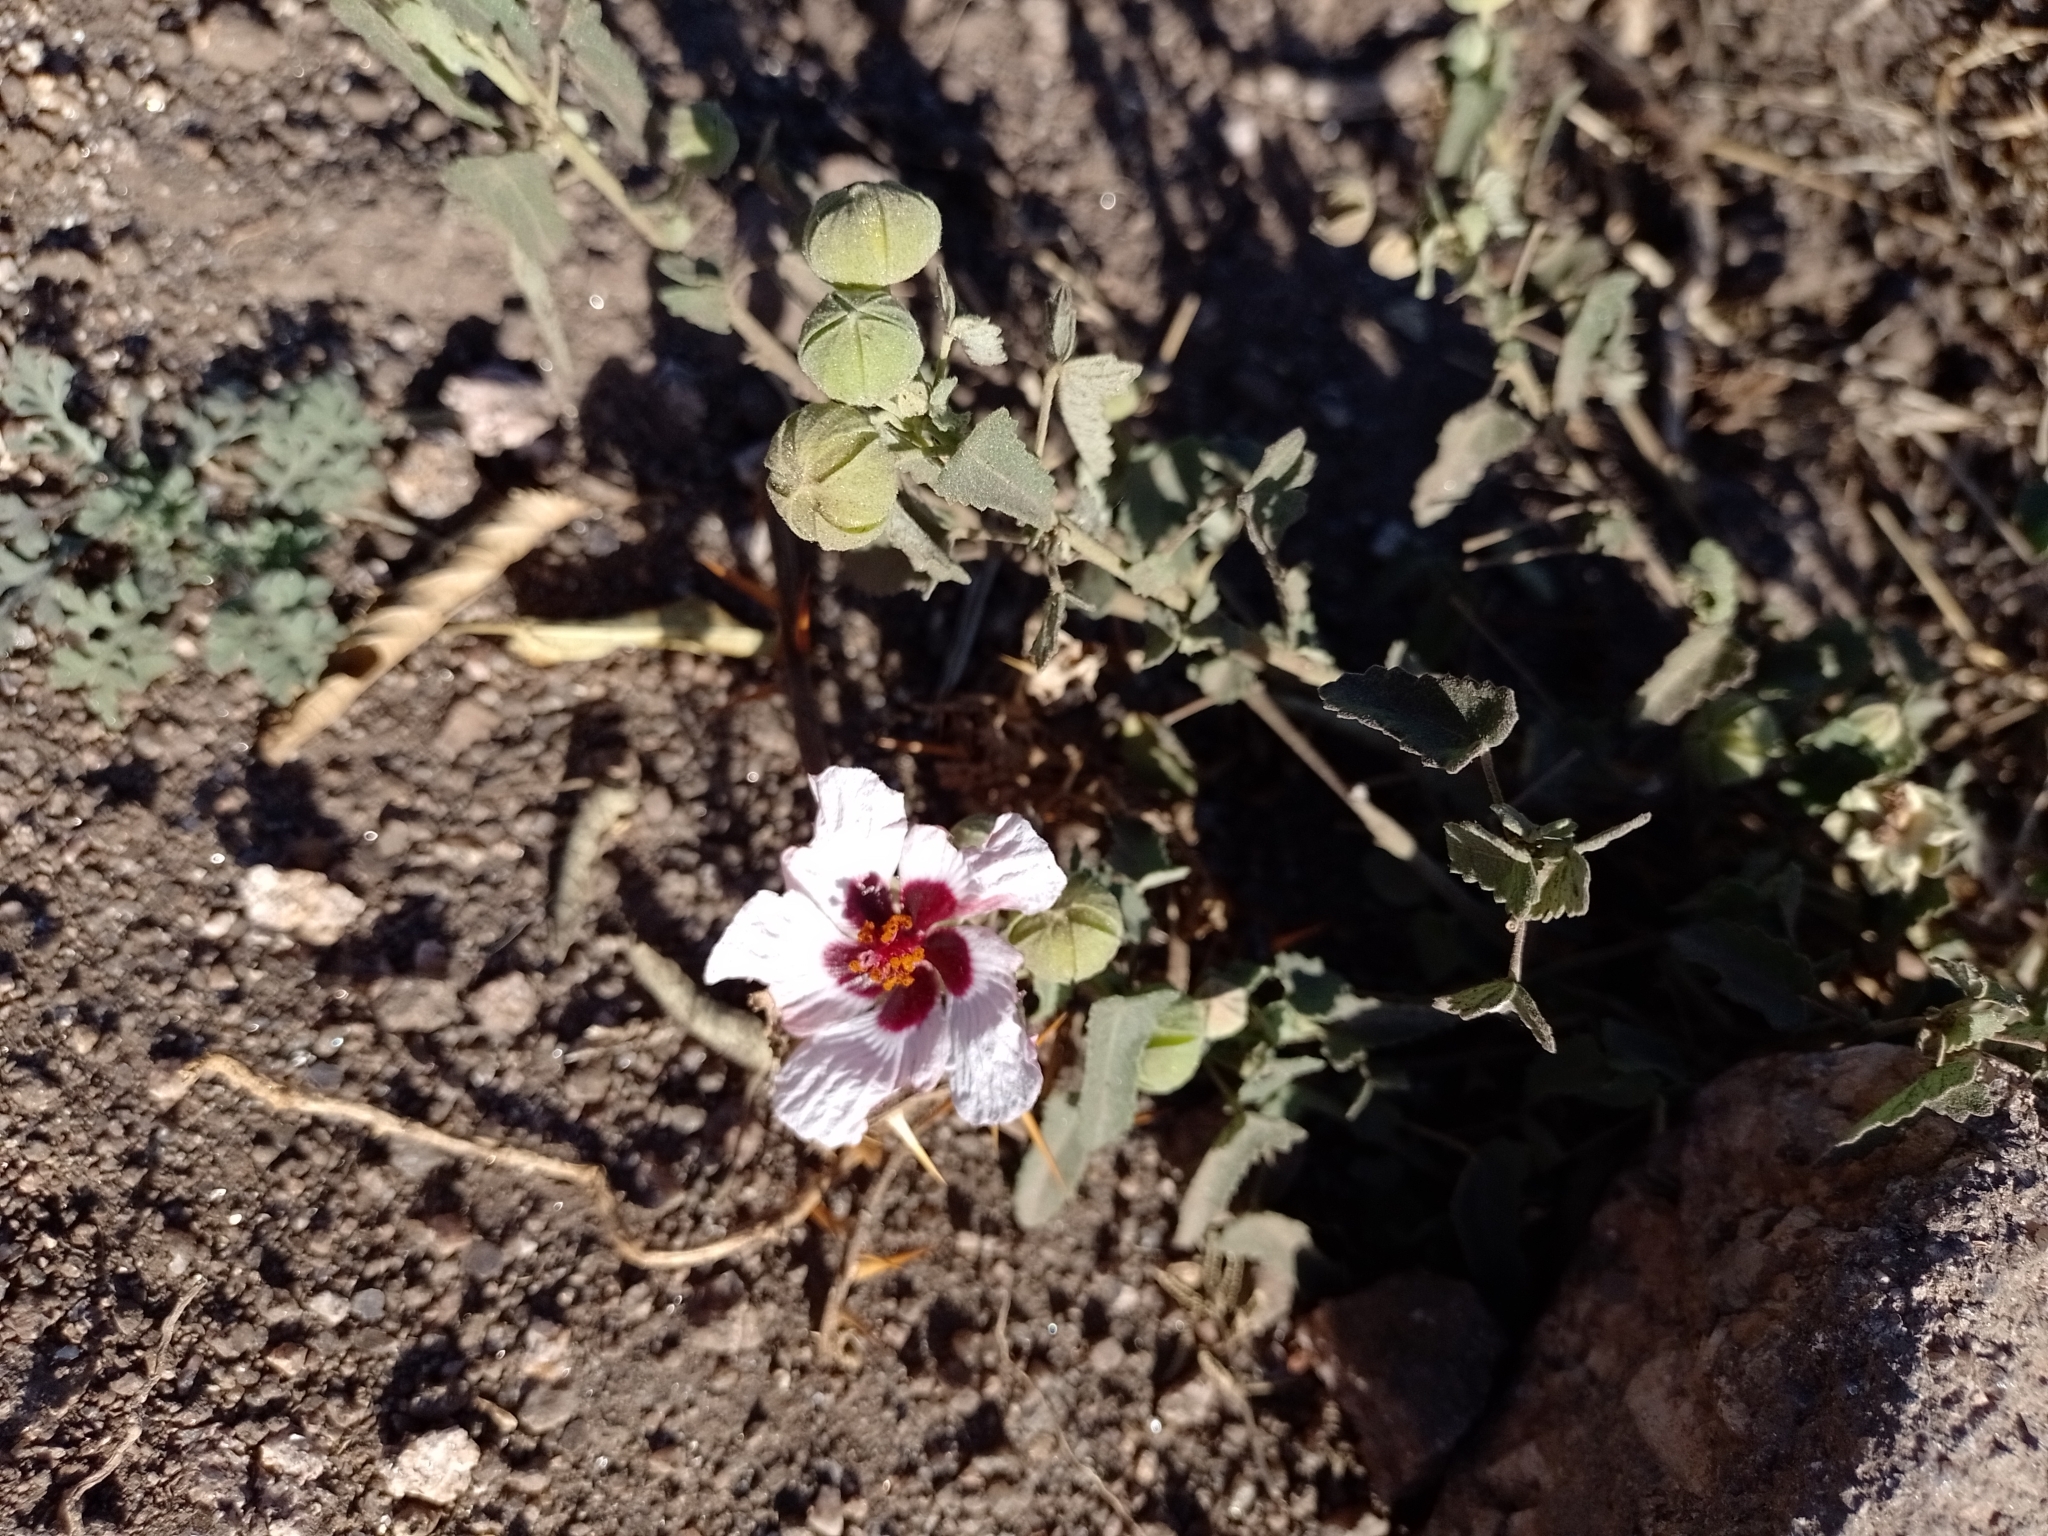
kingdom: Plantae
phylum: Tracheophyta
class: Magnoliopsida
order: Malvales
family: Malvaceae
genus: Pavonia
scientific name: Pavonia aurigloba
